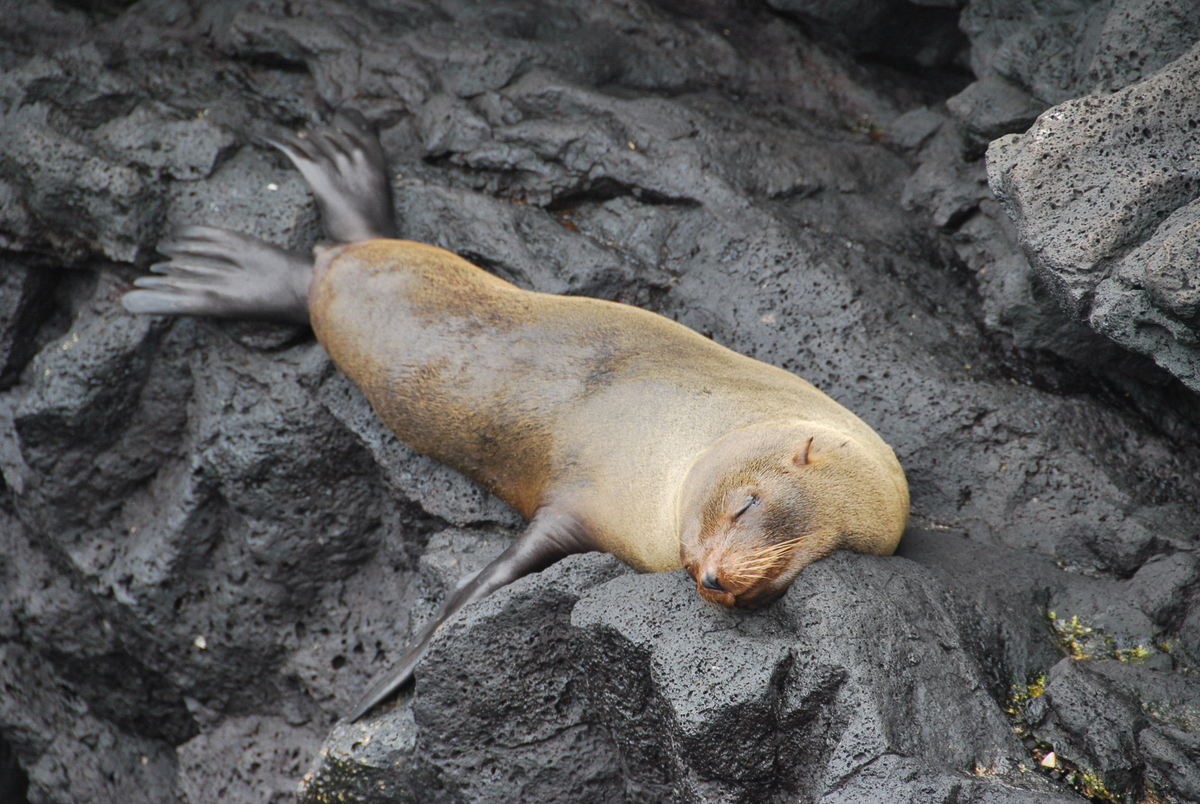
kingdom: Animalia
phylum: Chordata
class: Mammalia
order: Carnivora
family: Otariidae
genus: Zalophus
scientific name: Zalophus wollebaeki
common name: Galapagos sea lion
